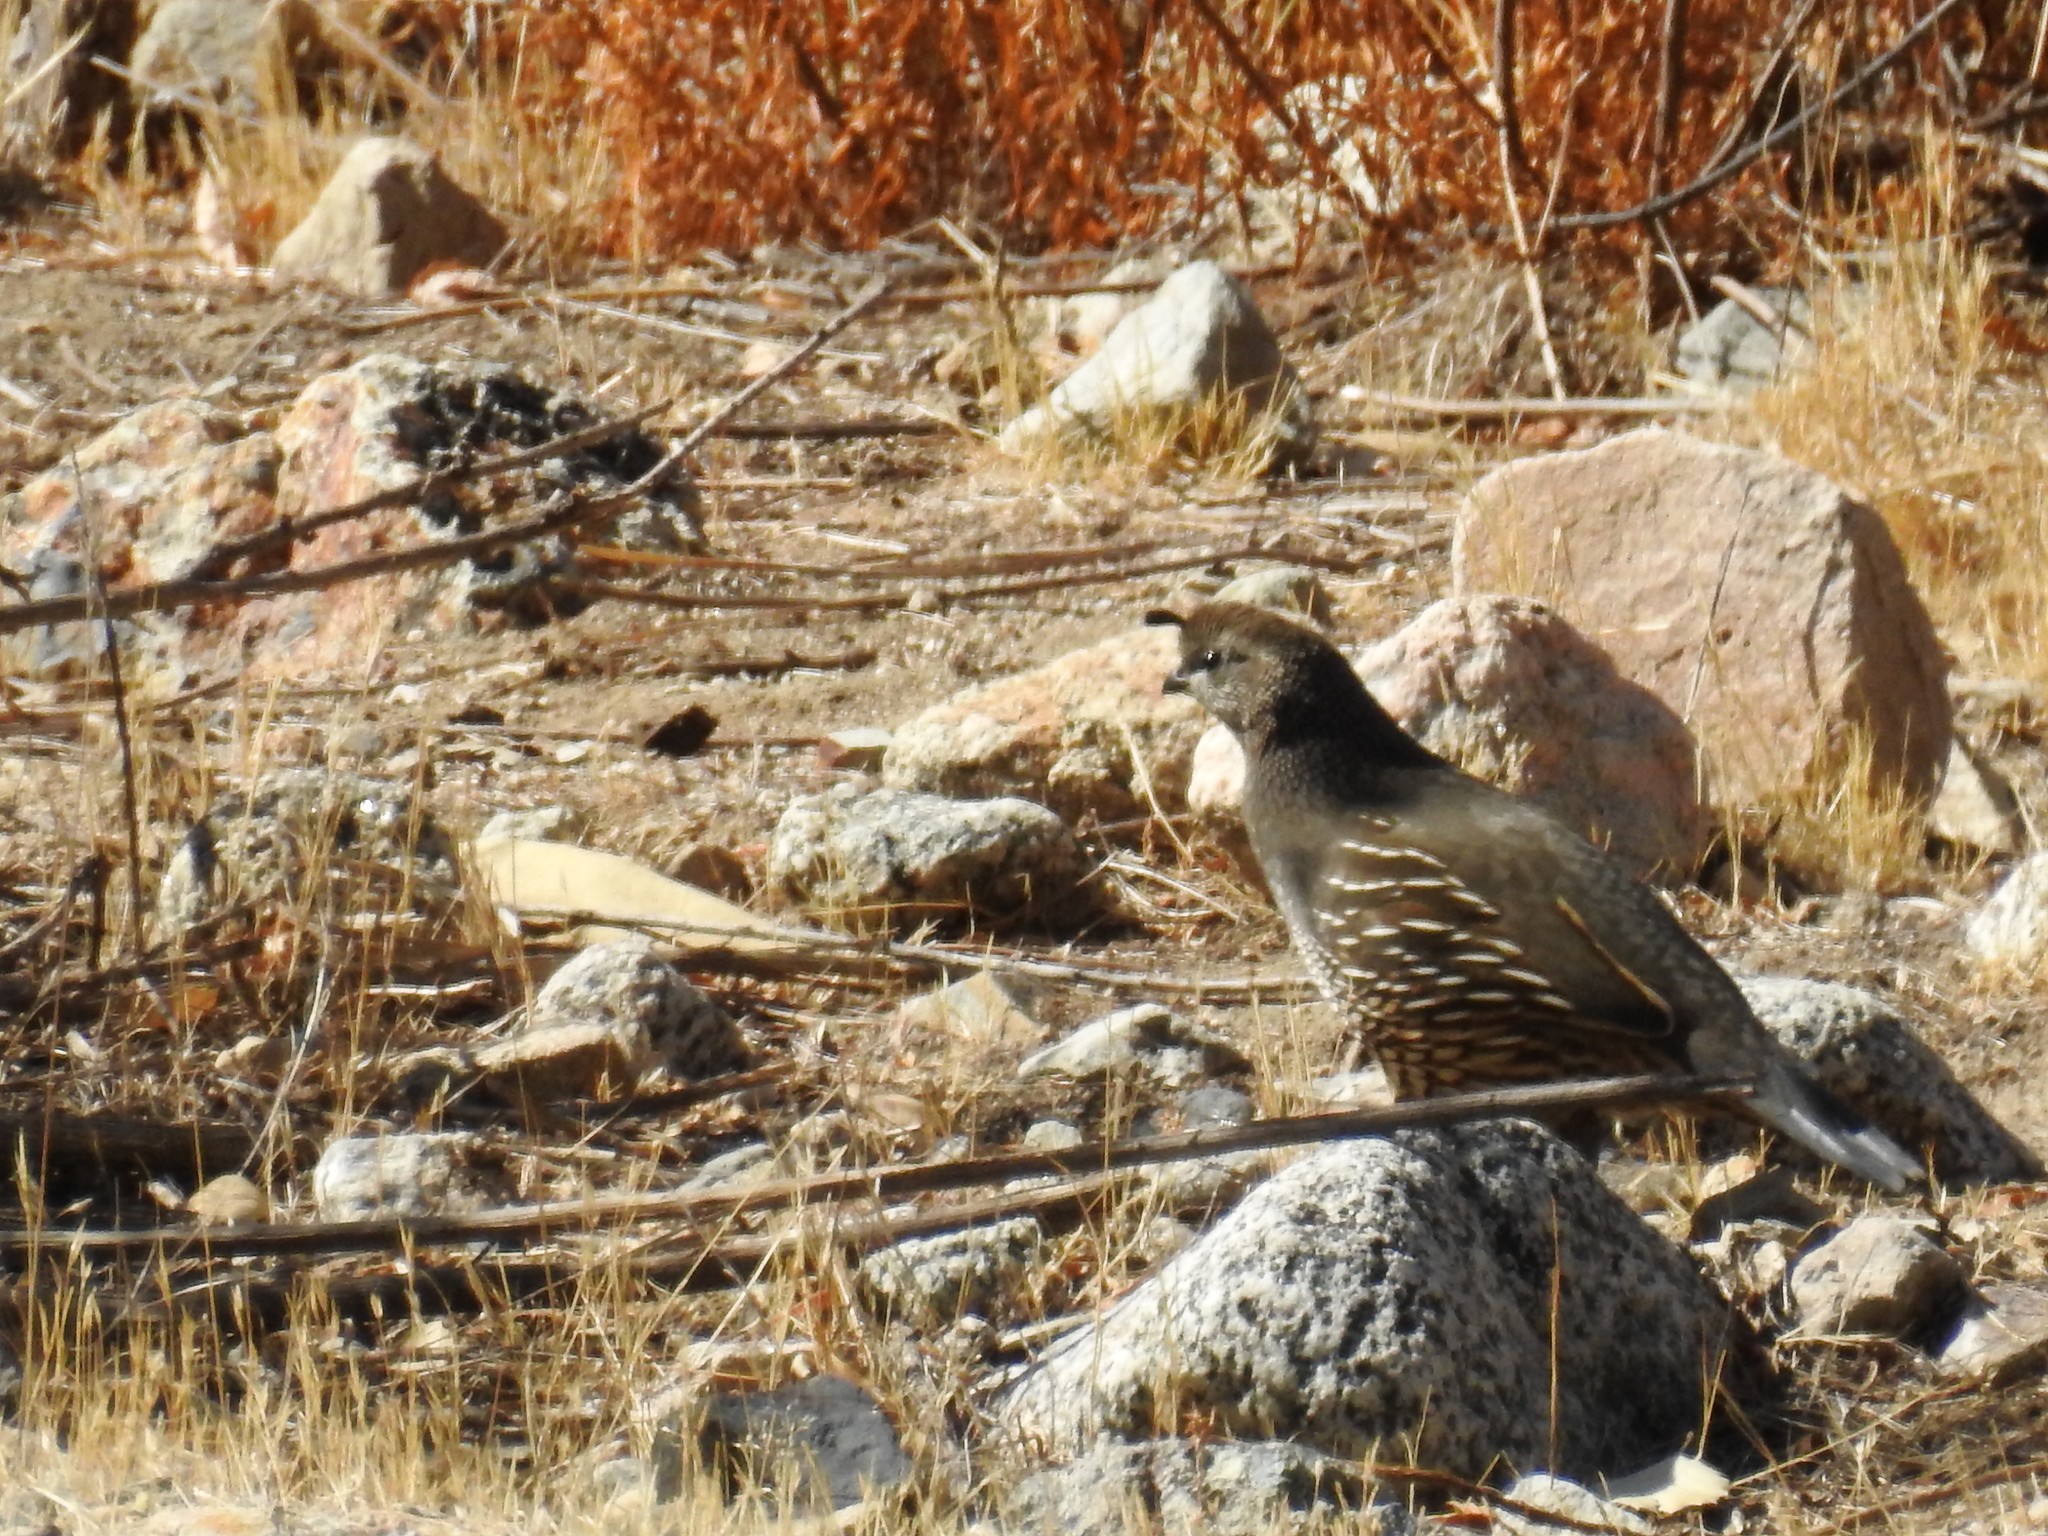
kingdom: Animalia
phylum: Chordata
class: Aves
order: Galliformes
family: Odontophoridae
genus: Callipepla
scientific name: Callipepla californica
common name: California quail
